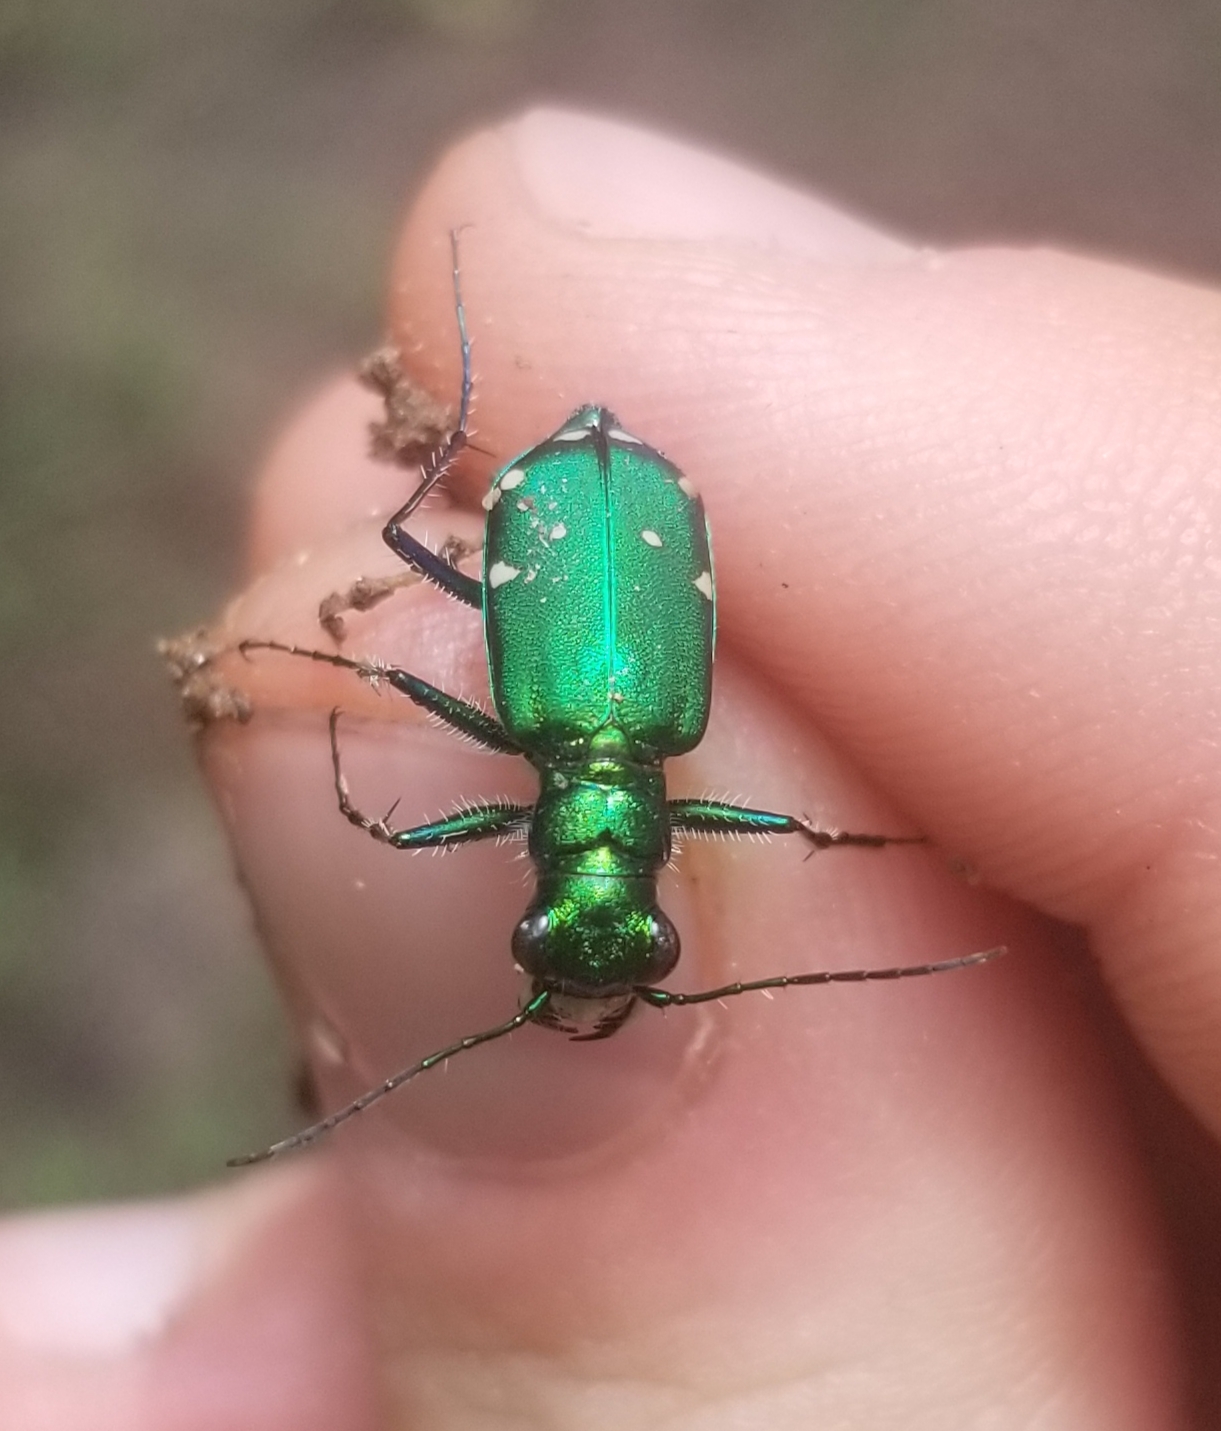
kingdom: Animalia
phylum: Arthropoda
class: Insecta
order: Coleoptera
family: Carabidae
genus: Cicindela
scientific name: Cicindela sexguttata
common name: Six-spotted tiger beetle
